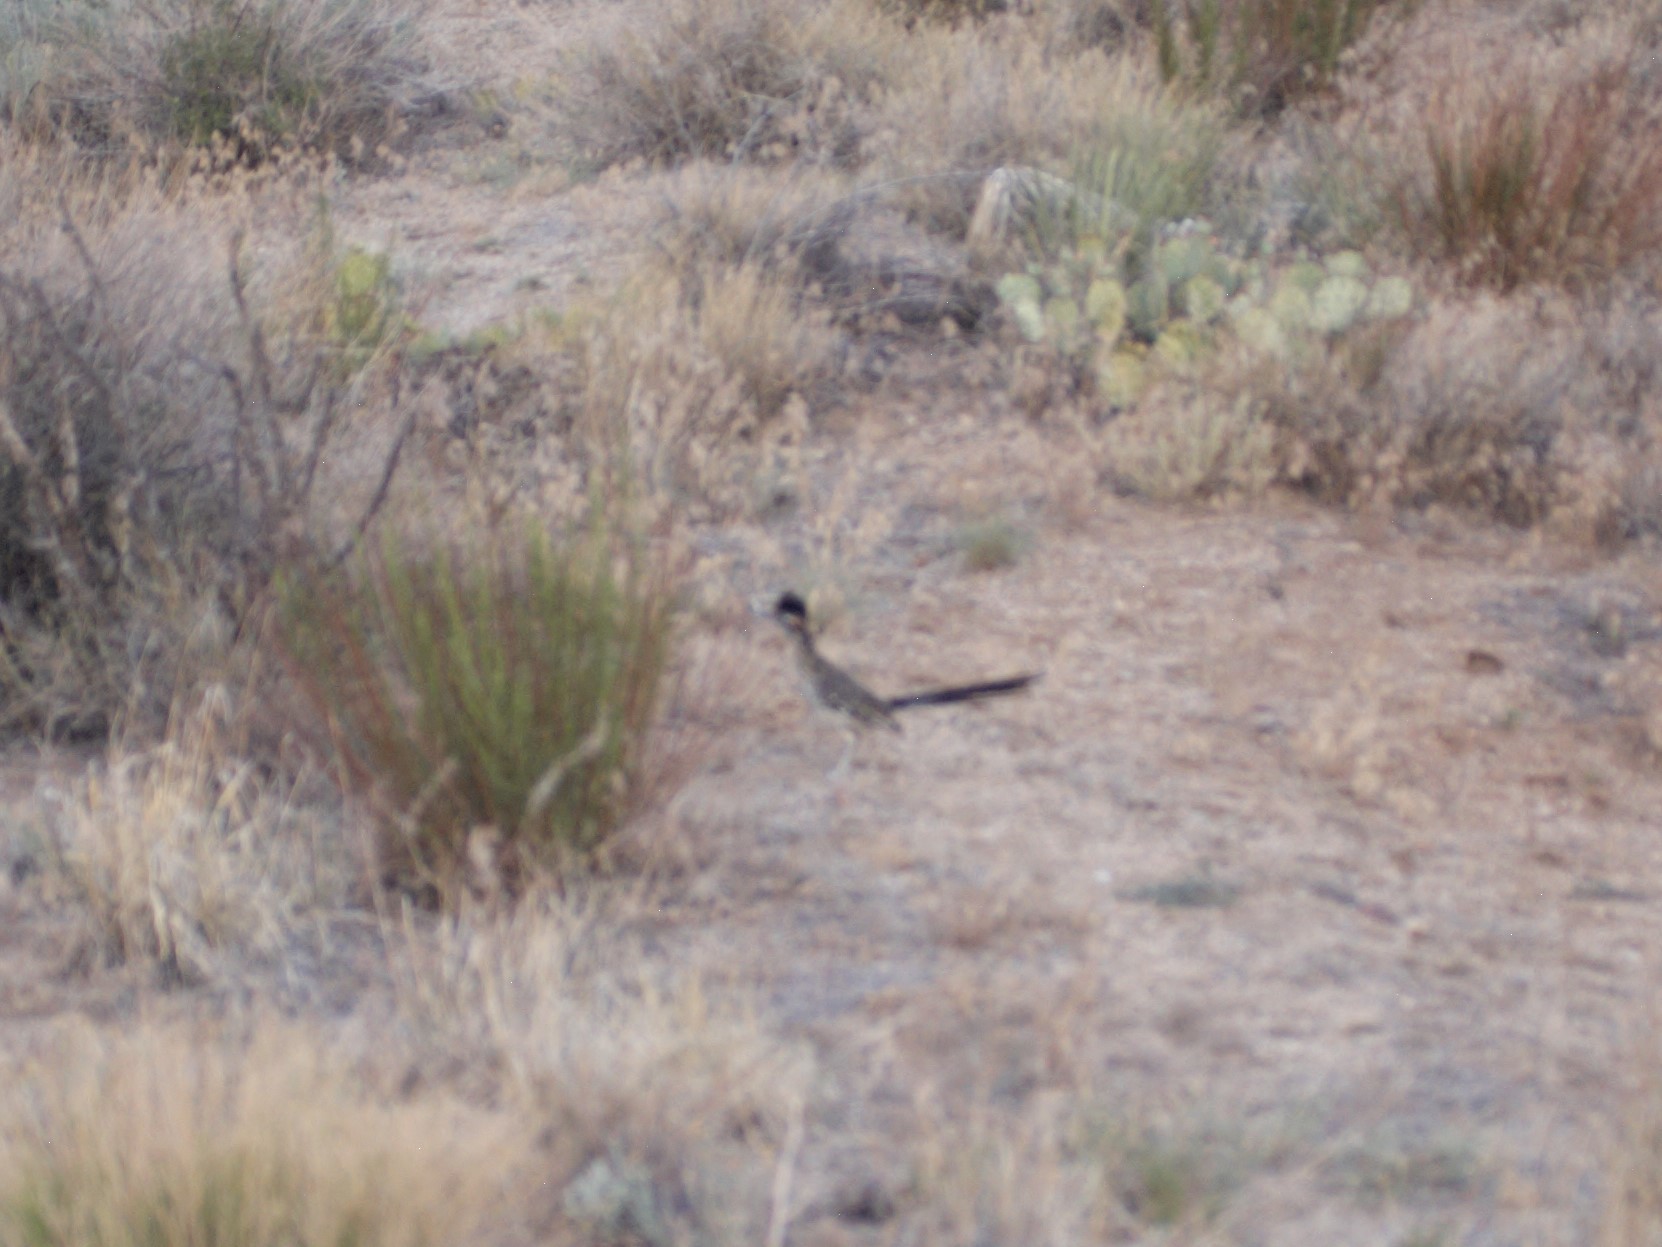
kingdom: Animalia
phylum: Chordata
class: Aves
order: Cuculiformes
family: Cuculidae
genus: Geococcyx
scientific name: Geococcyx californianus
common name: Greater roadrunner
